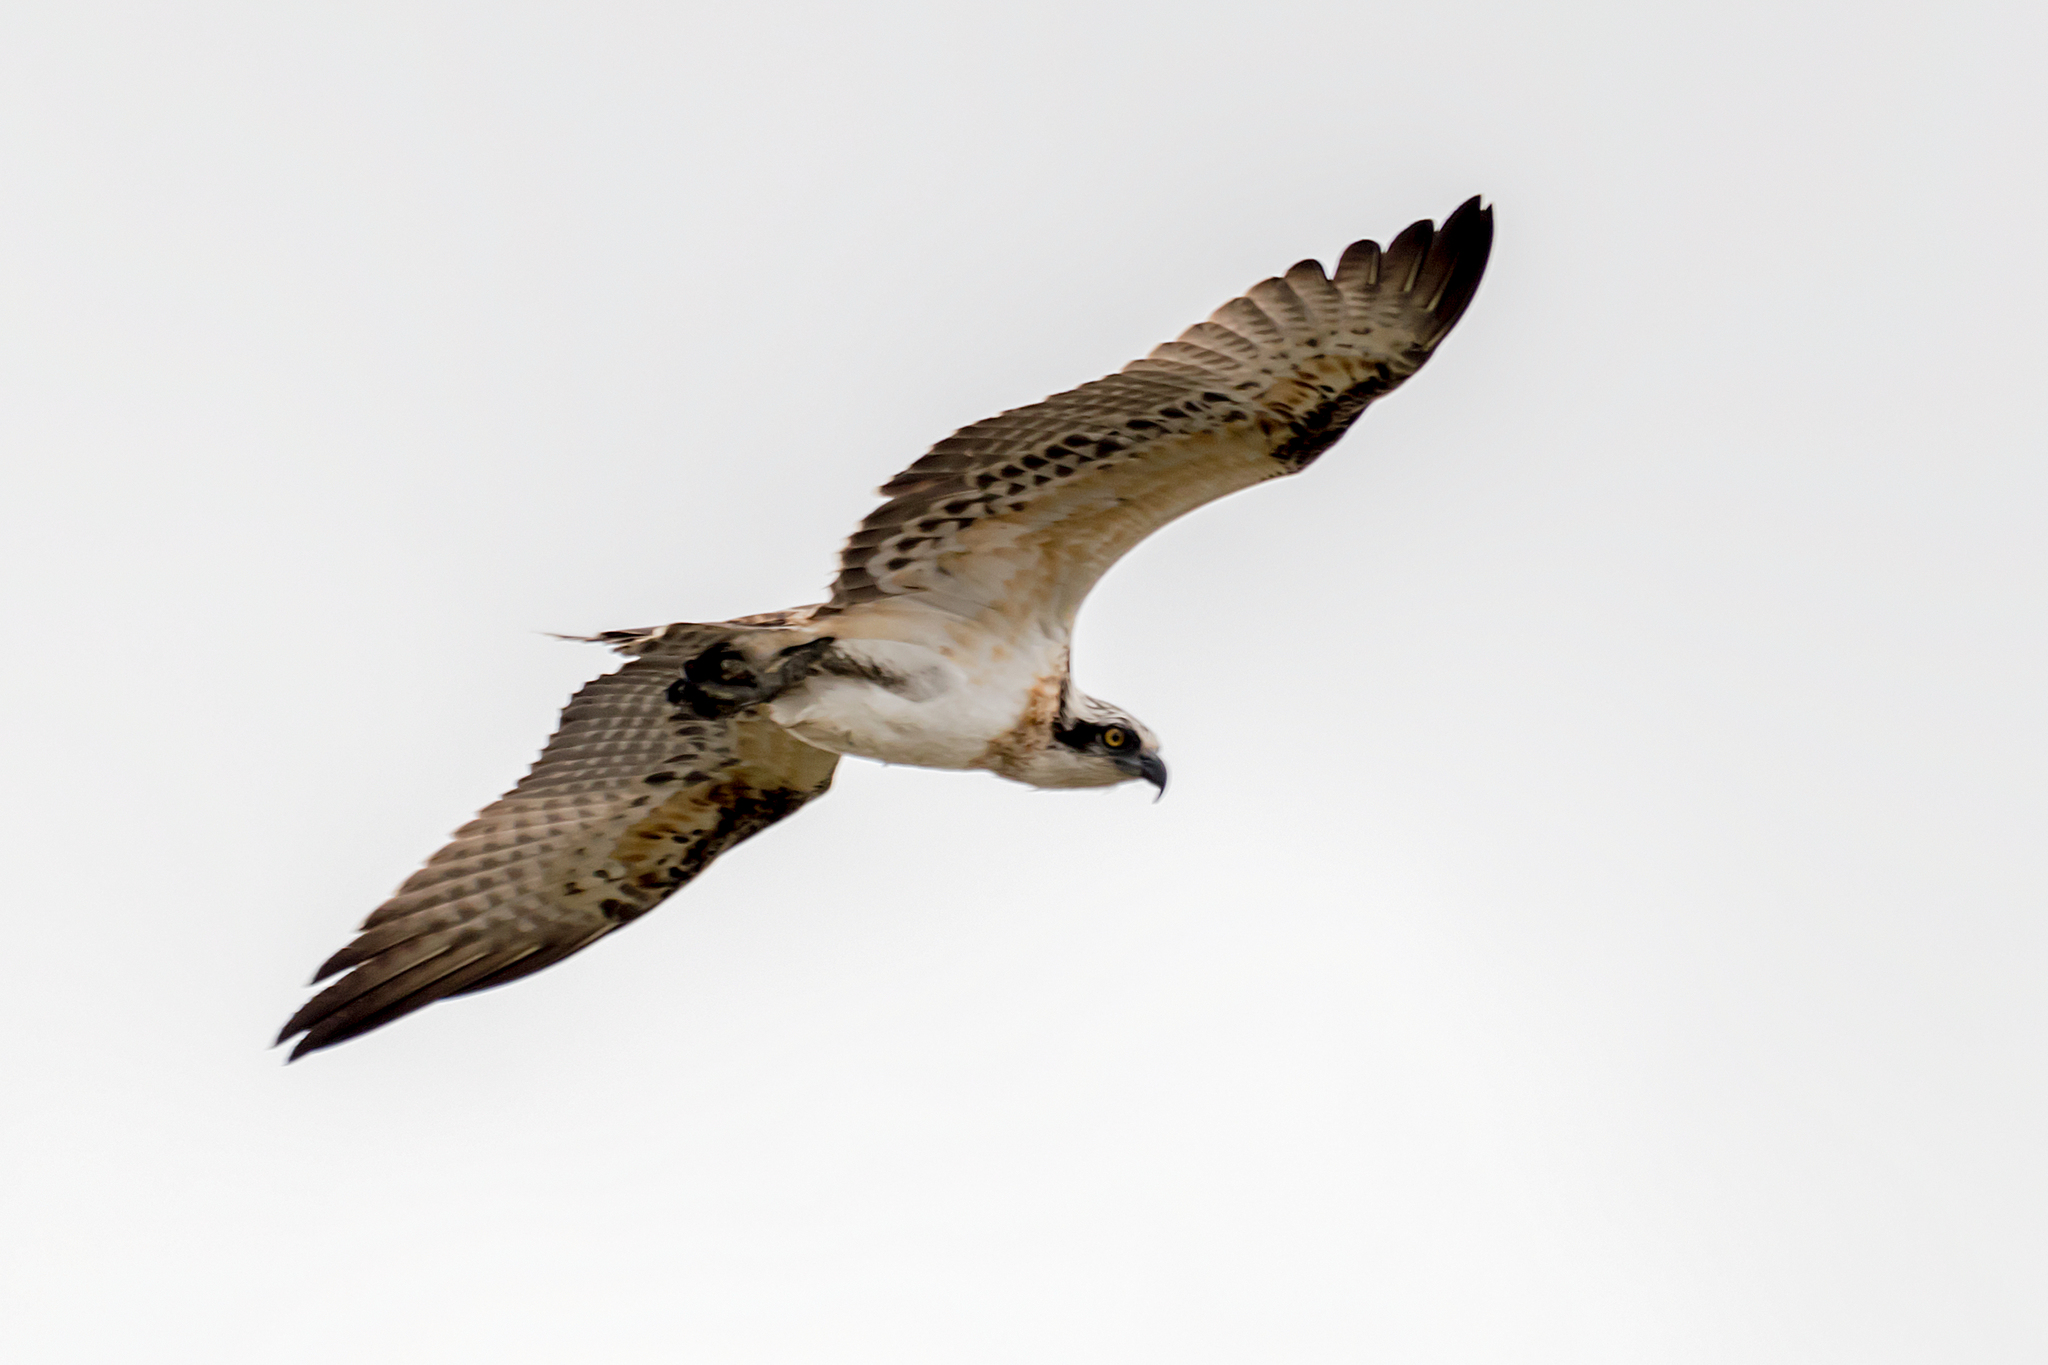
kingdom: Animalia
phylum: Chordata
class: Aves
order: Accipitriformes
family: Pandionidae
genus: Pandion
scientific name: Pandion cristatus
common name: Eastern osprey
